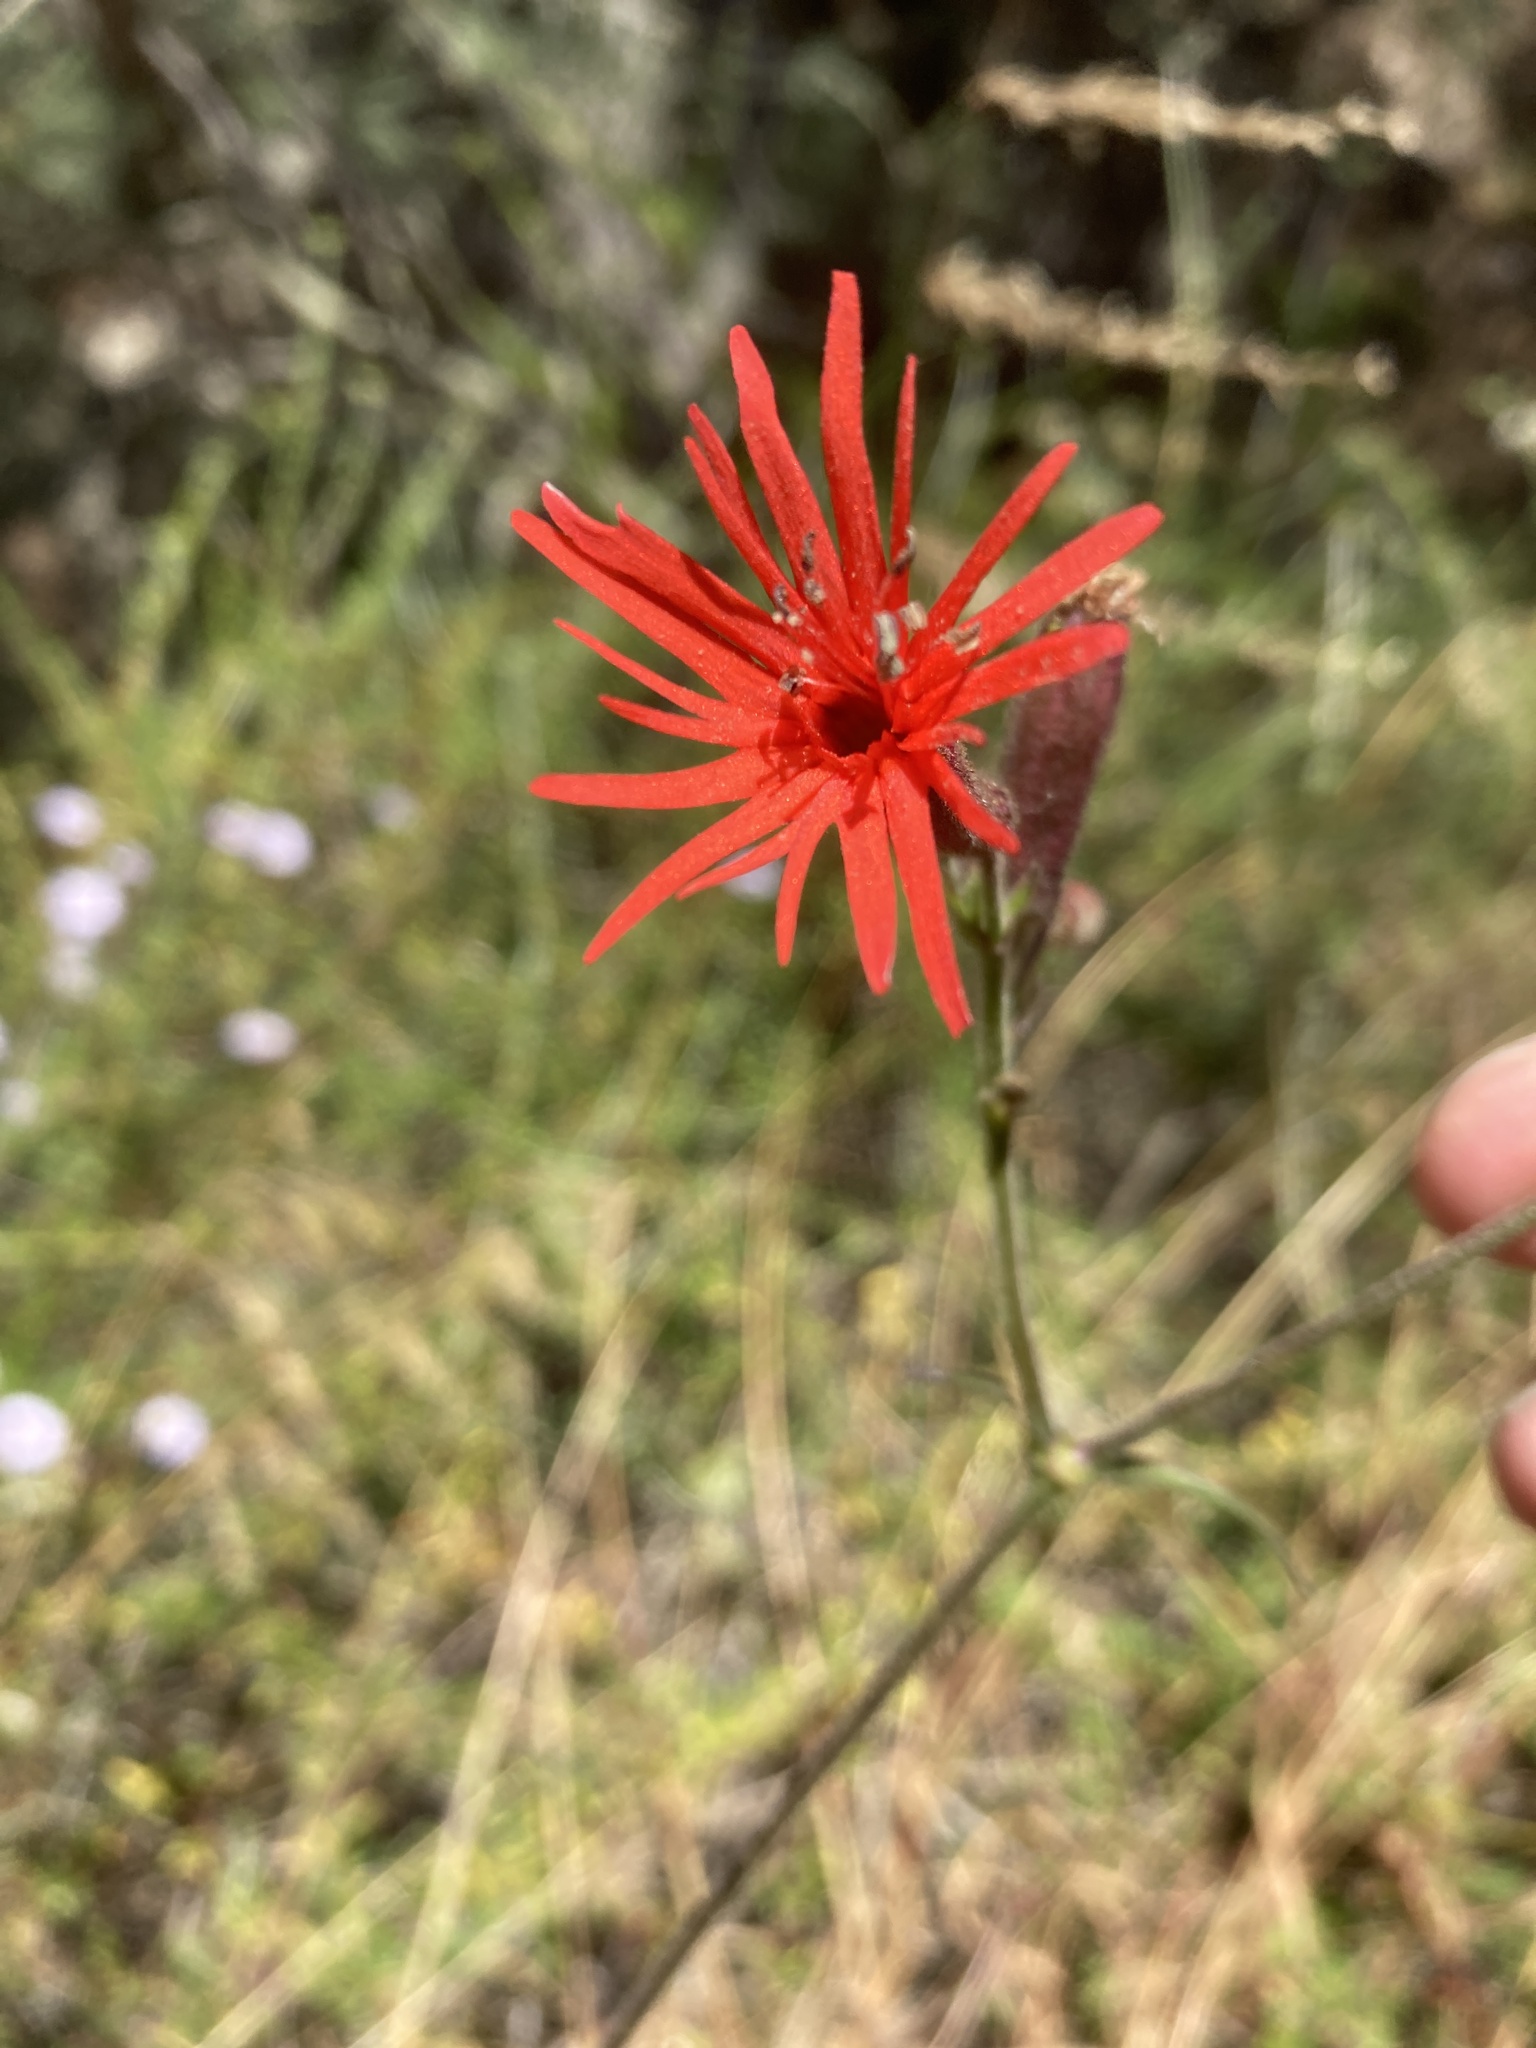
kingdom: Plantae
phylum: Tracheophyta
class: Magnoliopsida
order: Caryophyllales
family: Caryophyllaceae
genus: Silene
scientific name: Silene laciniata
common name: Indian-pink
